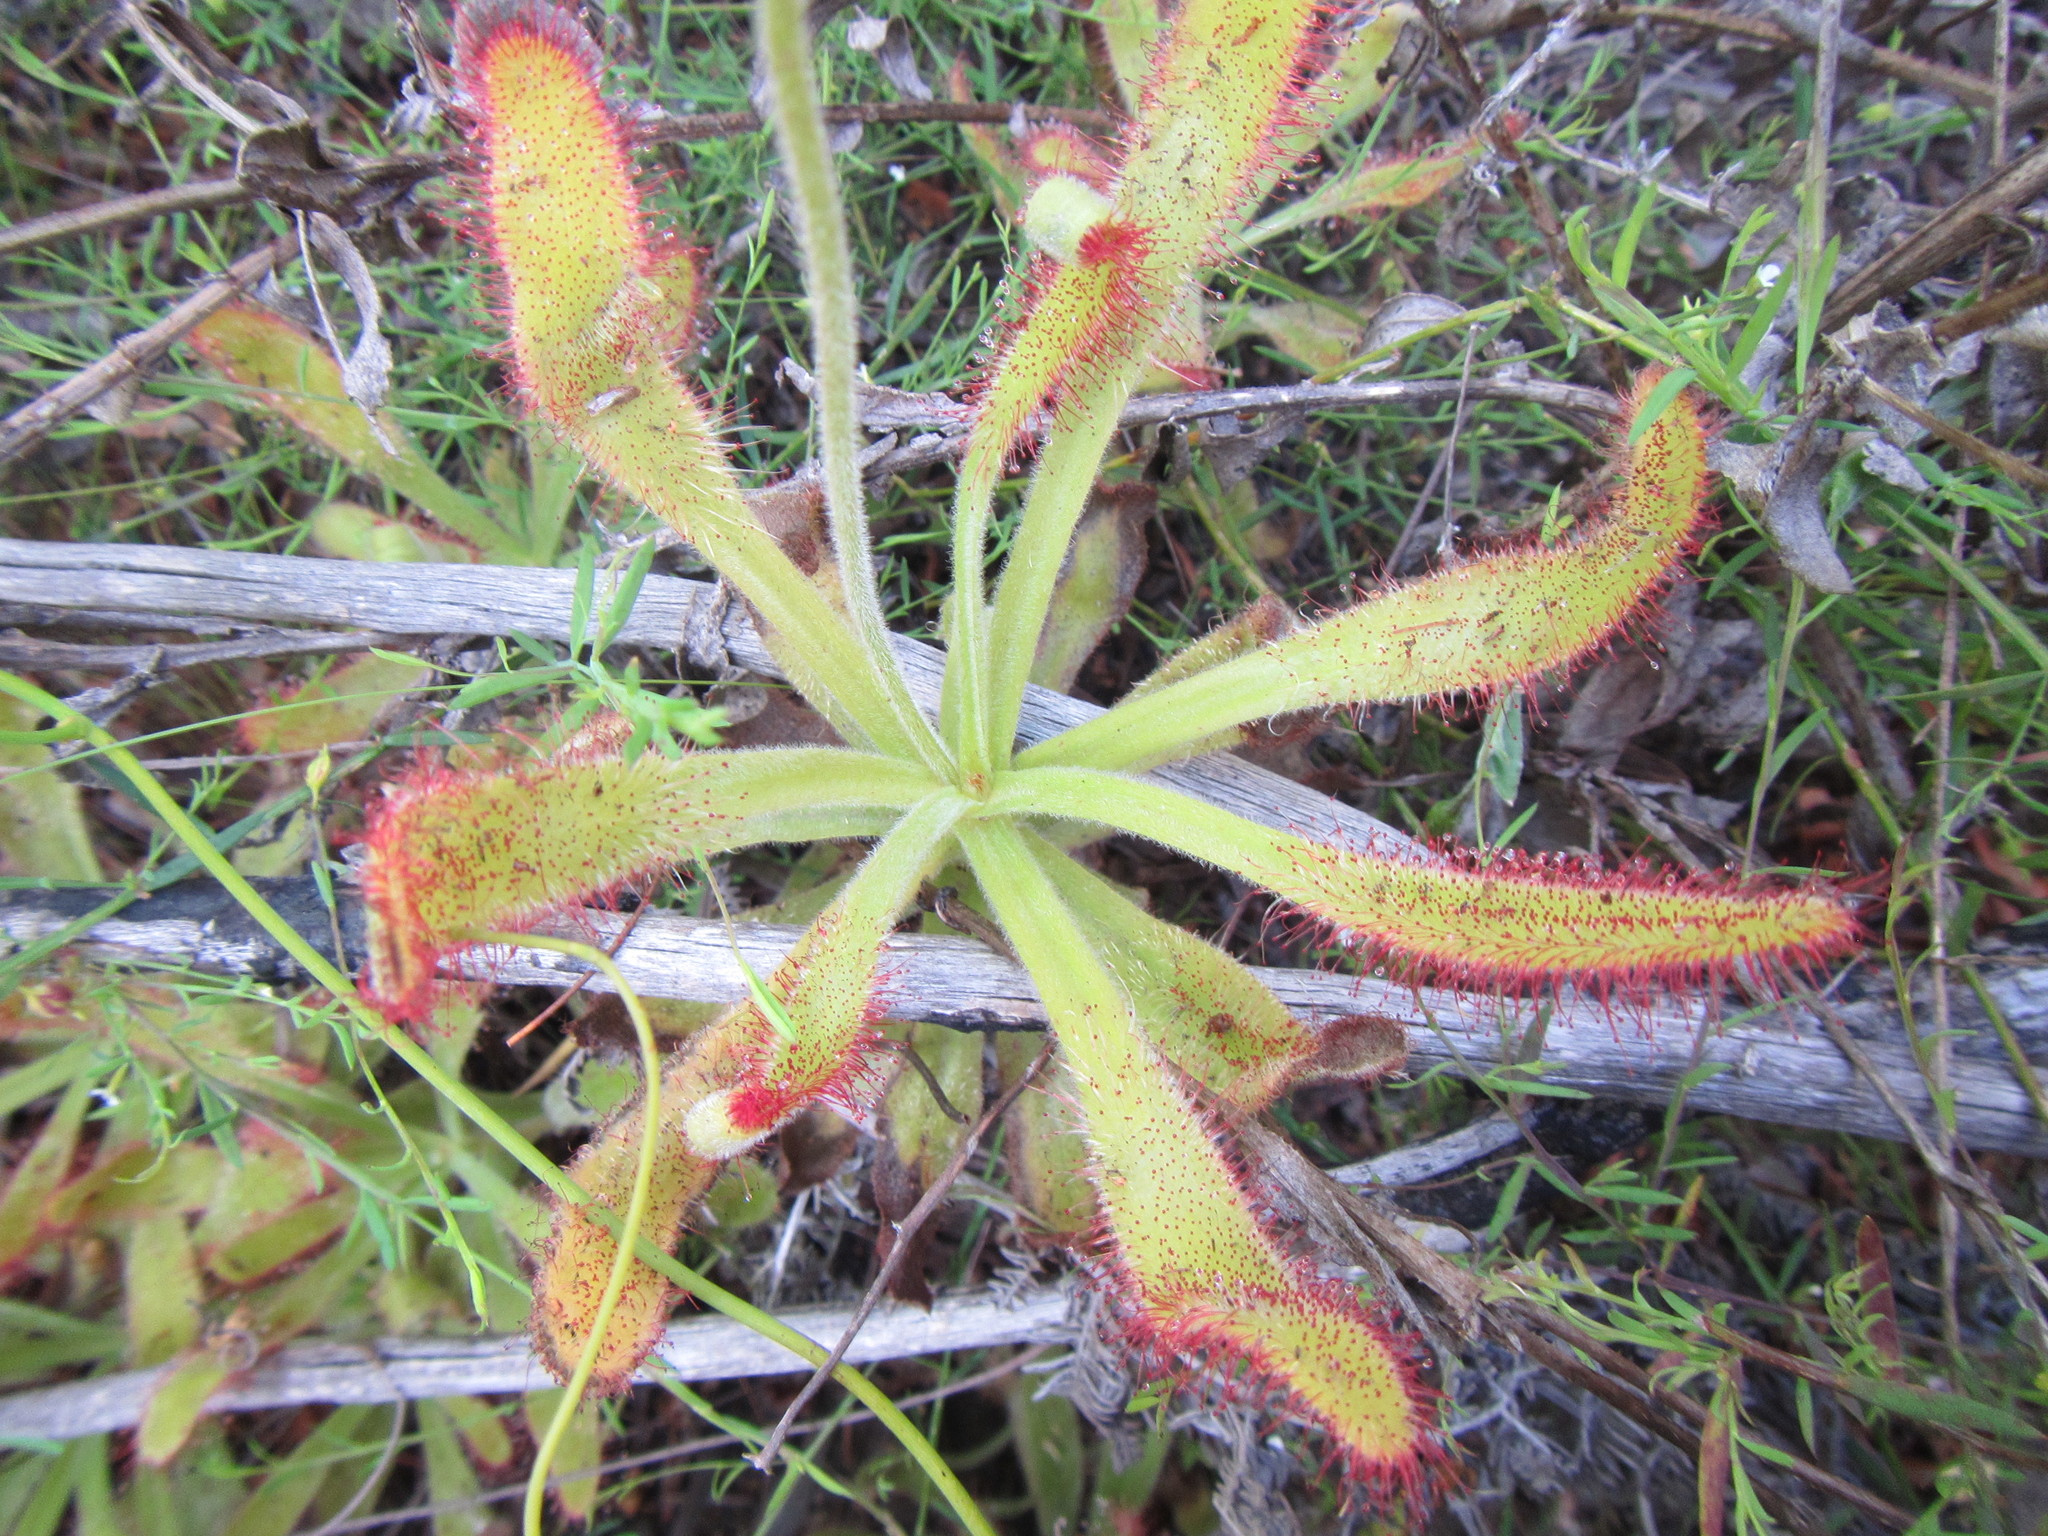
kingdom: Plantae
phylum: Tracheophyta
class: Magnoliopsida
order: Caryophyllales
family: Droseraceae
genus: Drosera
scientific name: Drosera hilaris
